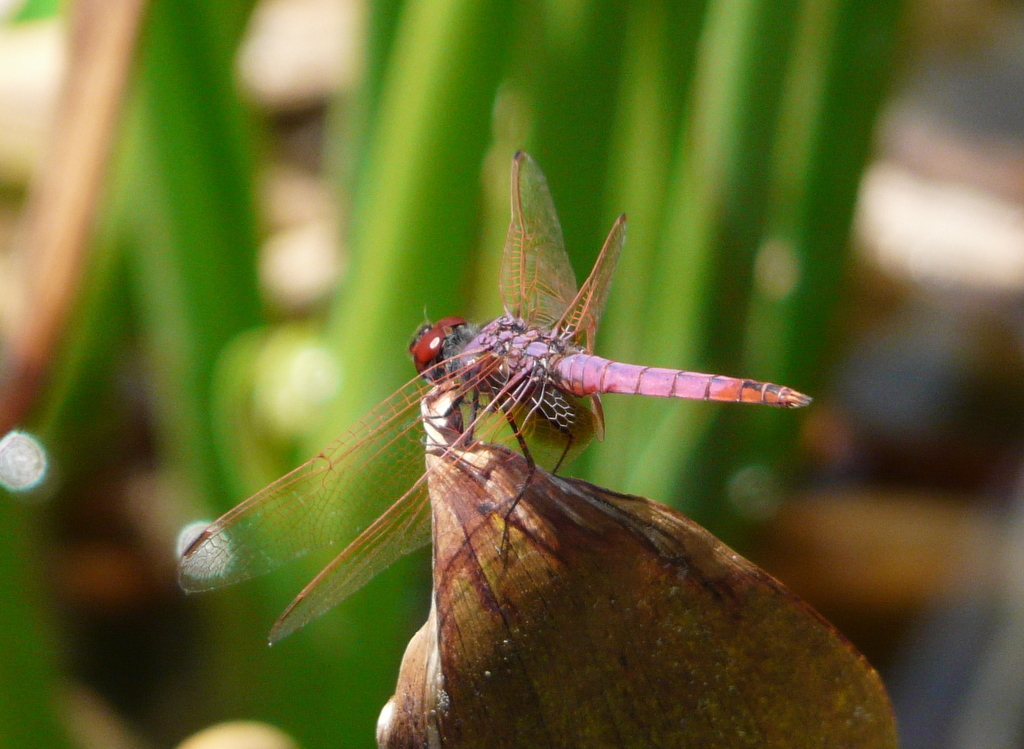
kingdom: Animalia
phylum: Arthropoda
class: Insecta
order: Odonata
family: Libellulidae
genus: Trithemis
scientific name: Trithemis annulata
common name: Violet dropwing
